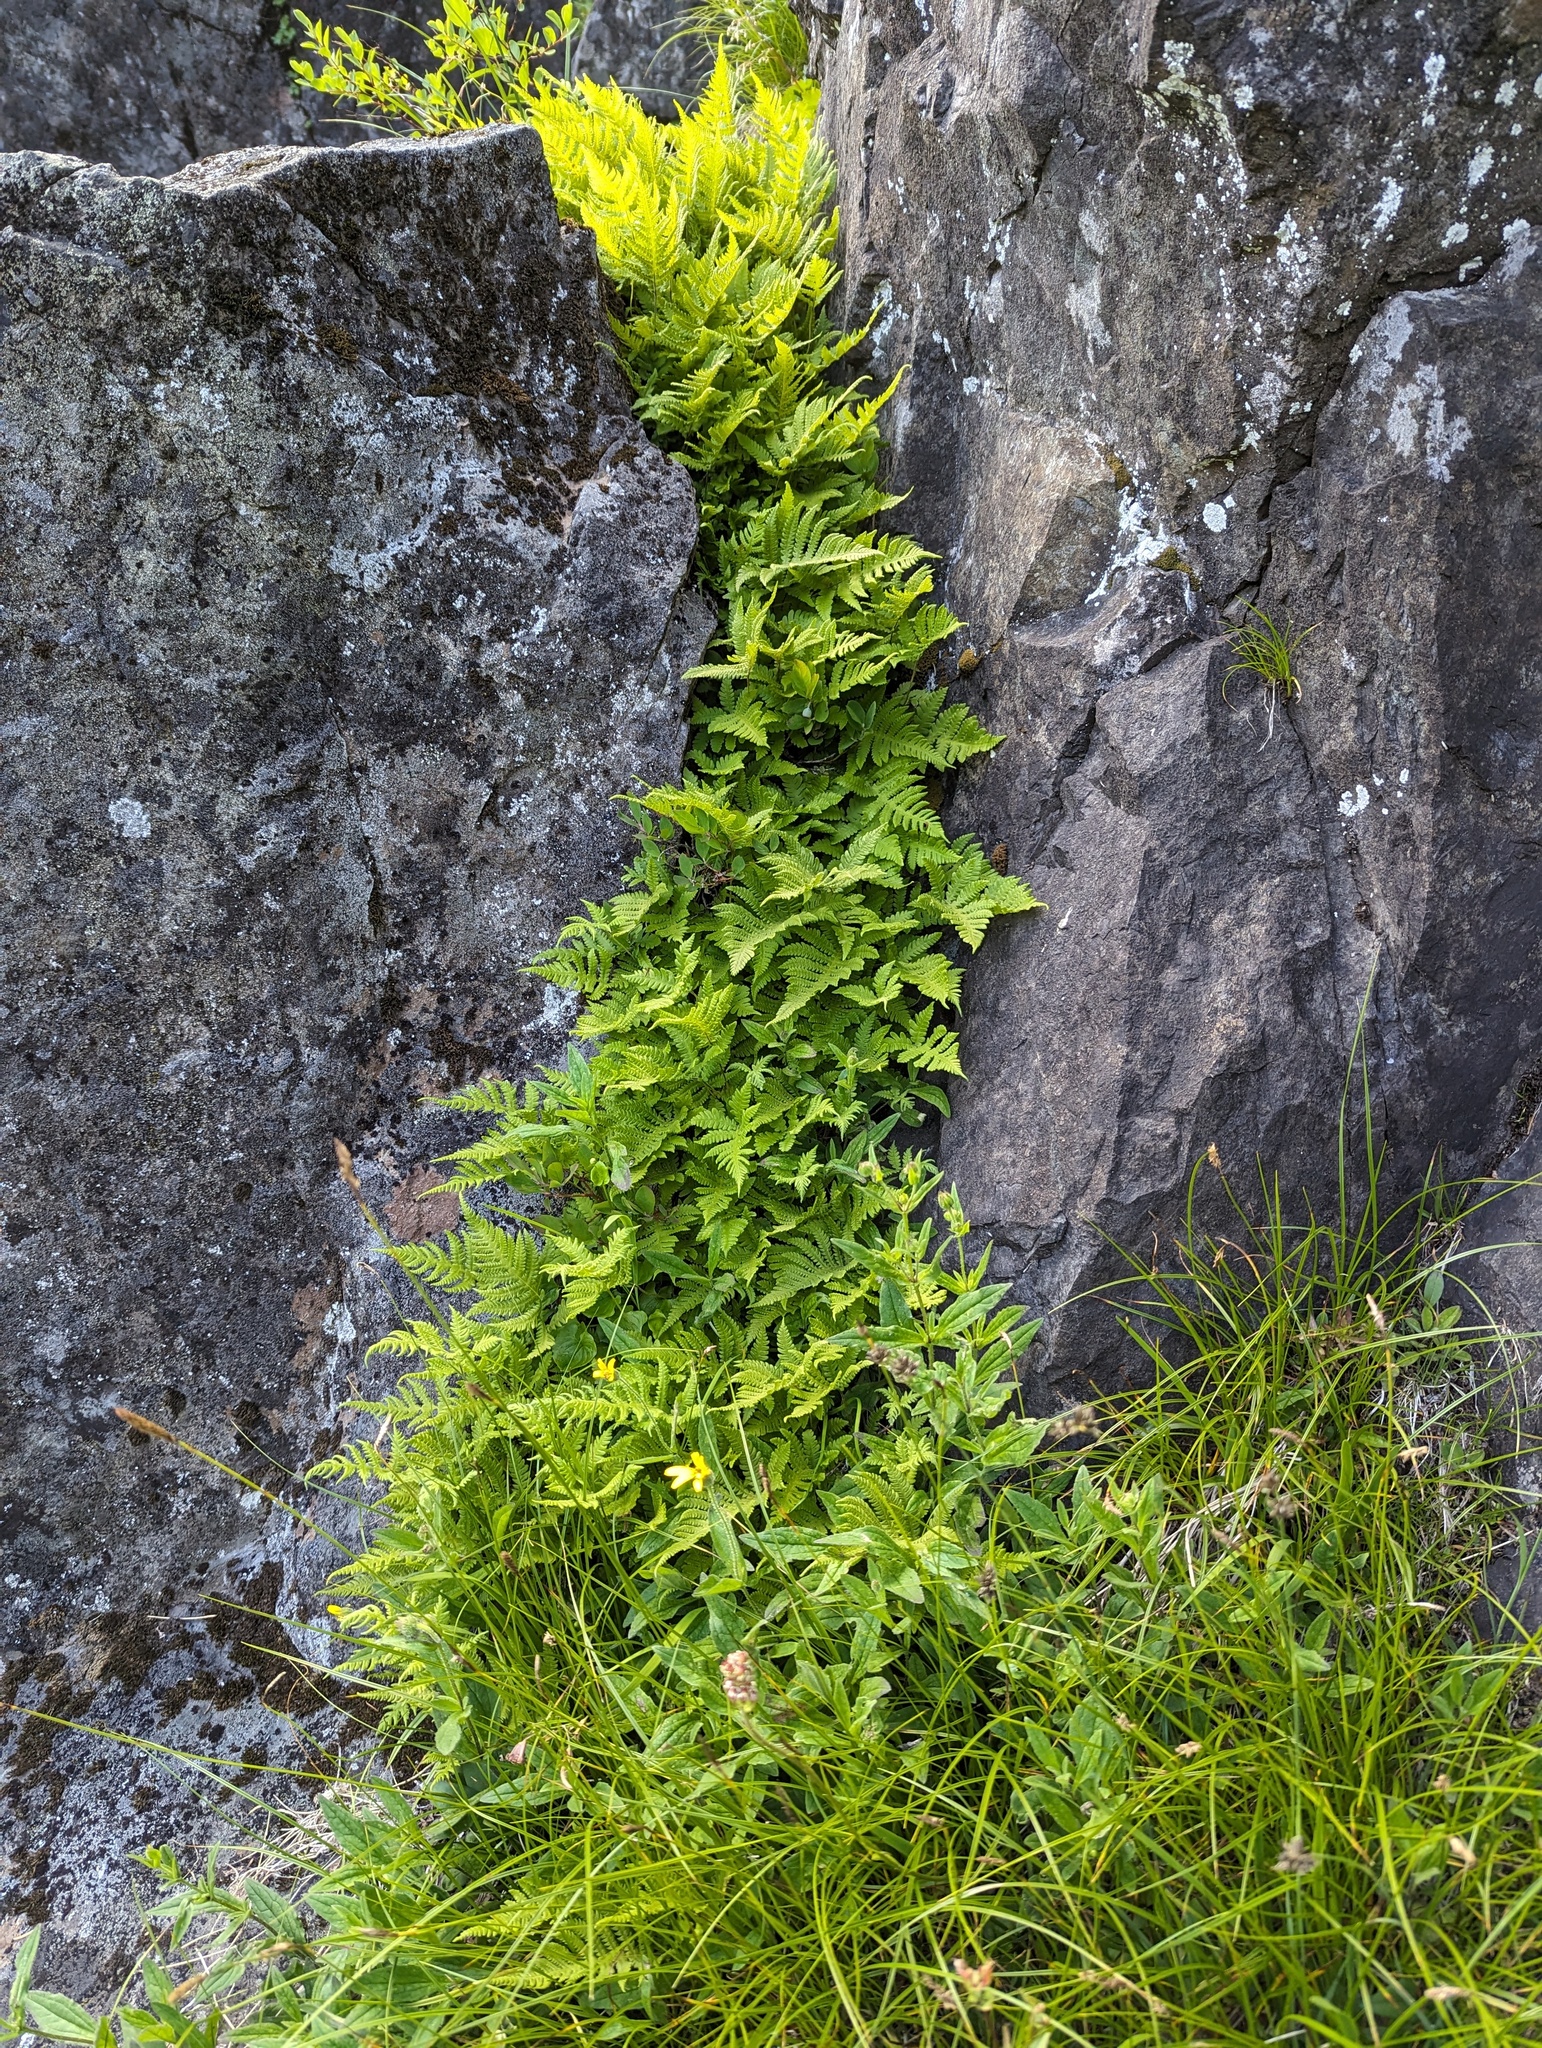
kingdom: Plantae
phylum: Tracheophyta
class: Polypodiopsida
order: Polypodiales
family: Thelypteridaceae
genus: Phegopteris
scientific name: Phegopteris connectilis
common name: Beech fern
